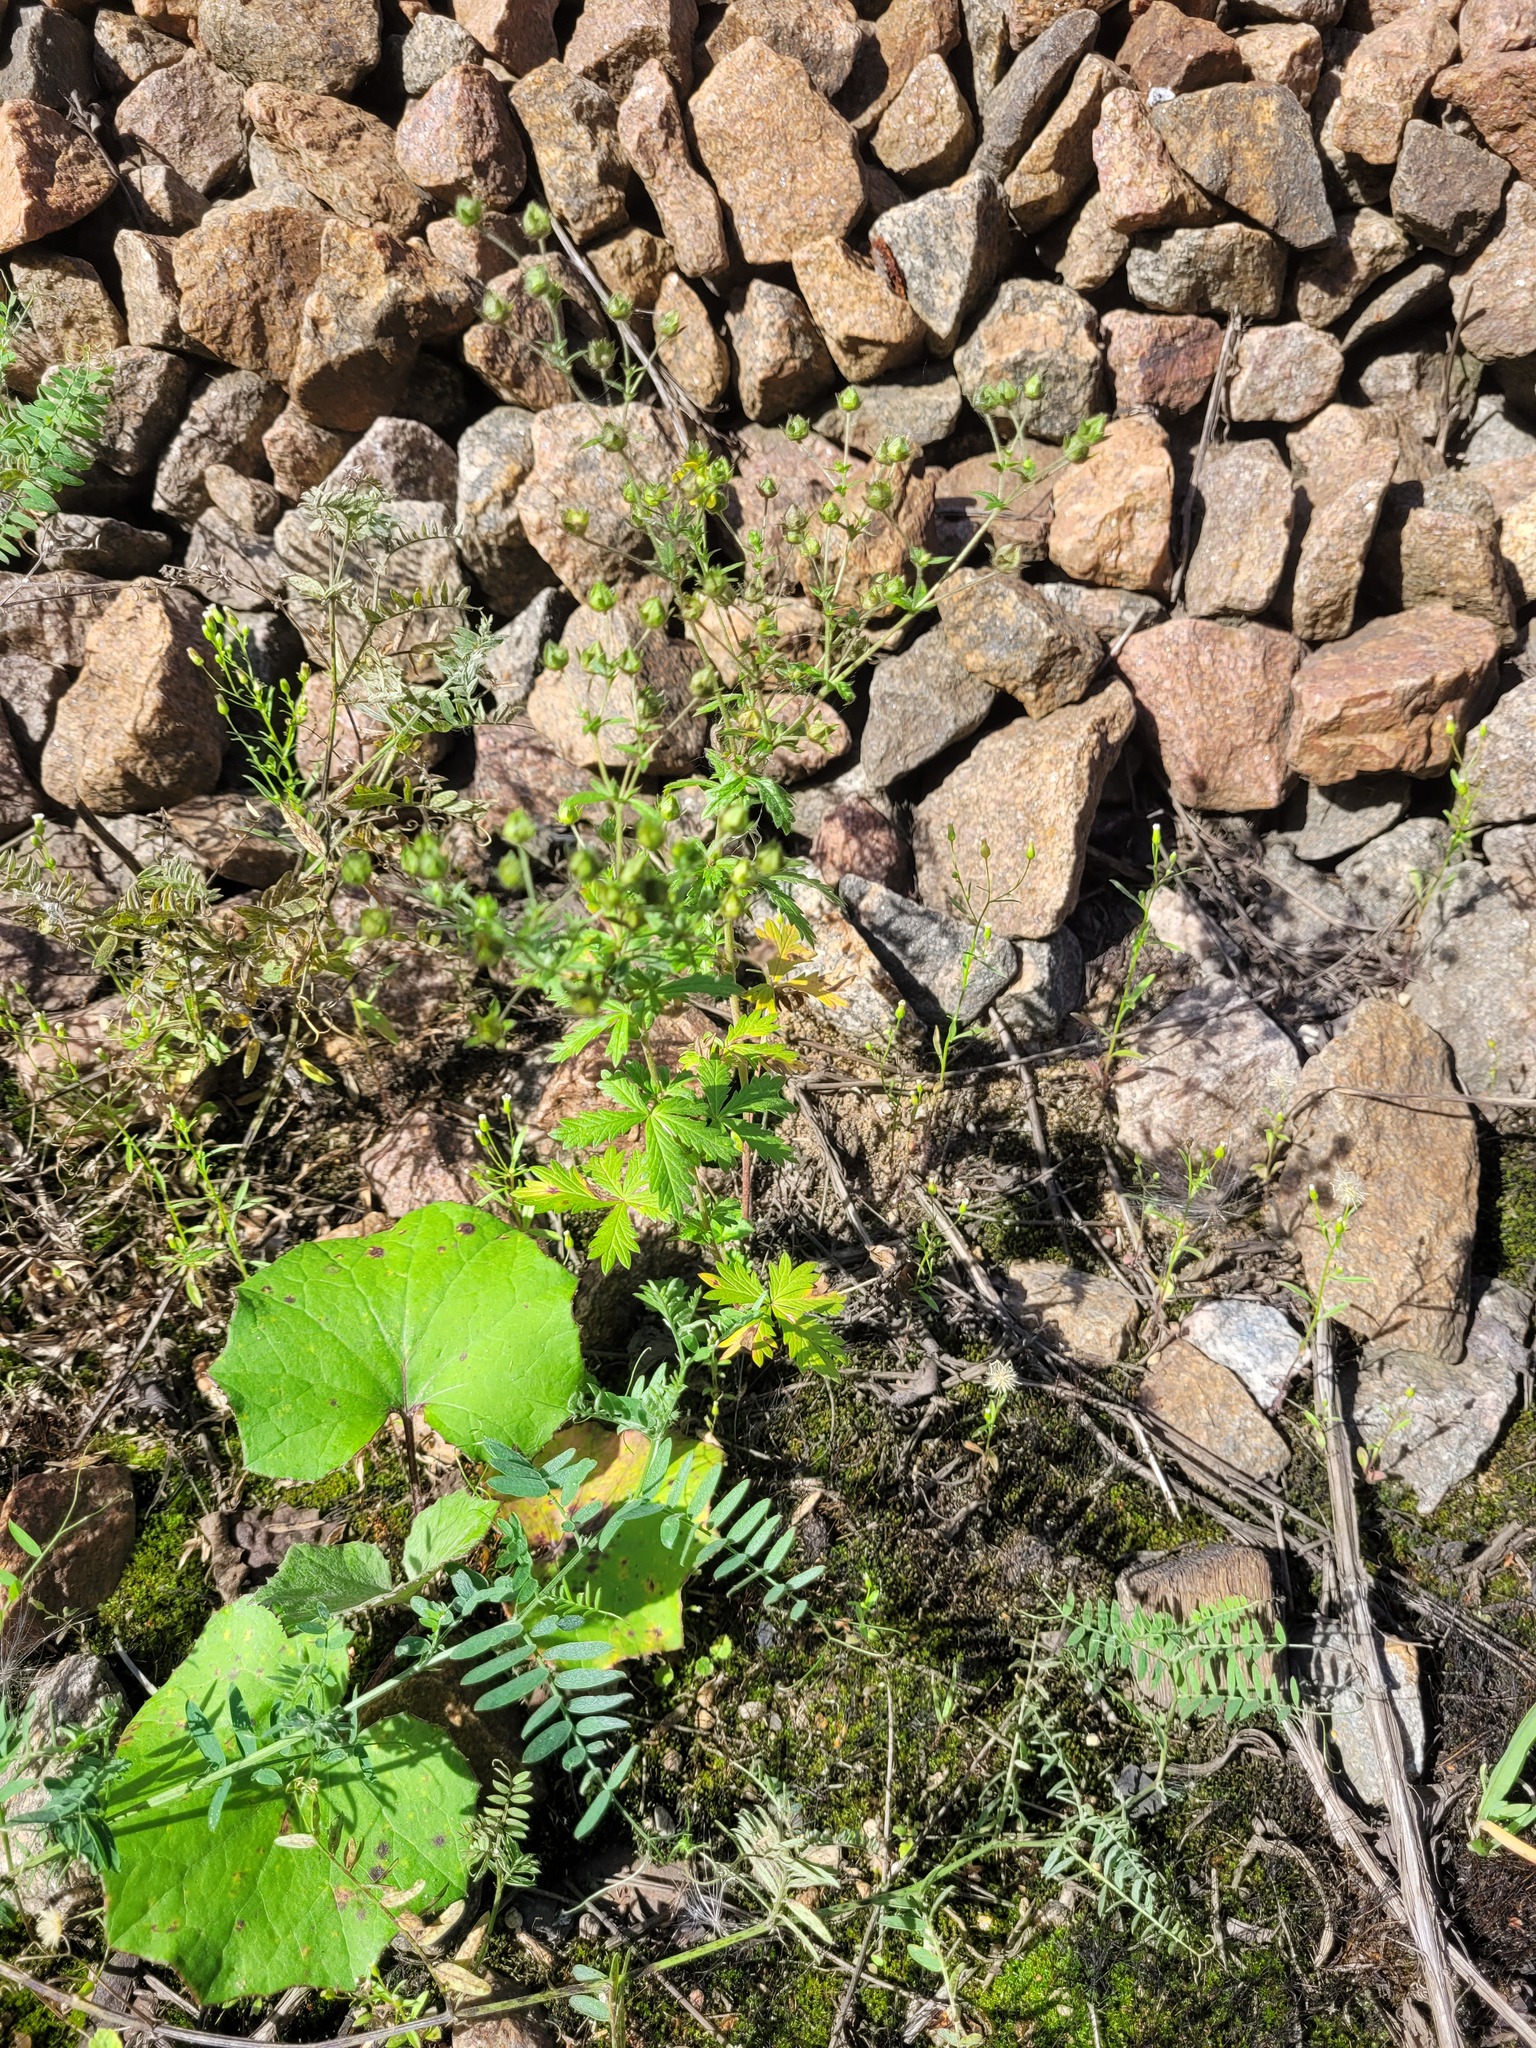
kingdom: Plantae
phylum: Tracheophyta
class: Magnoliopsida
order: Rosales
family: Rosaceae
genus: Potentilla
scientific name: Potentilla intermedia
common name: Downy cinquefoil
